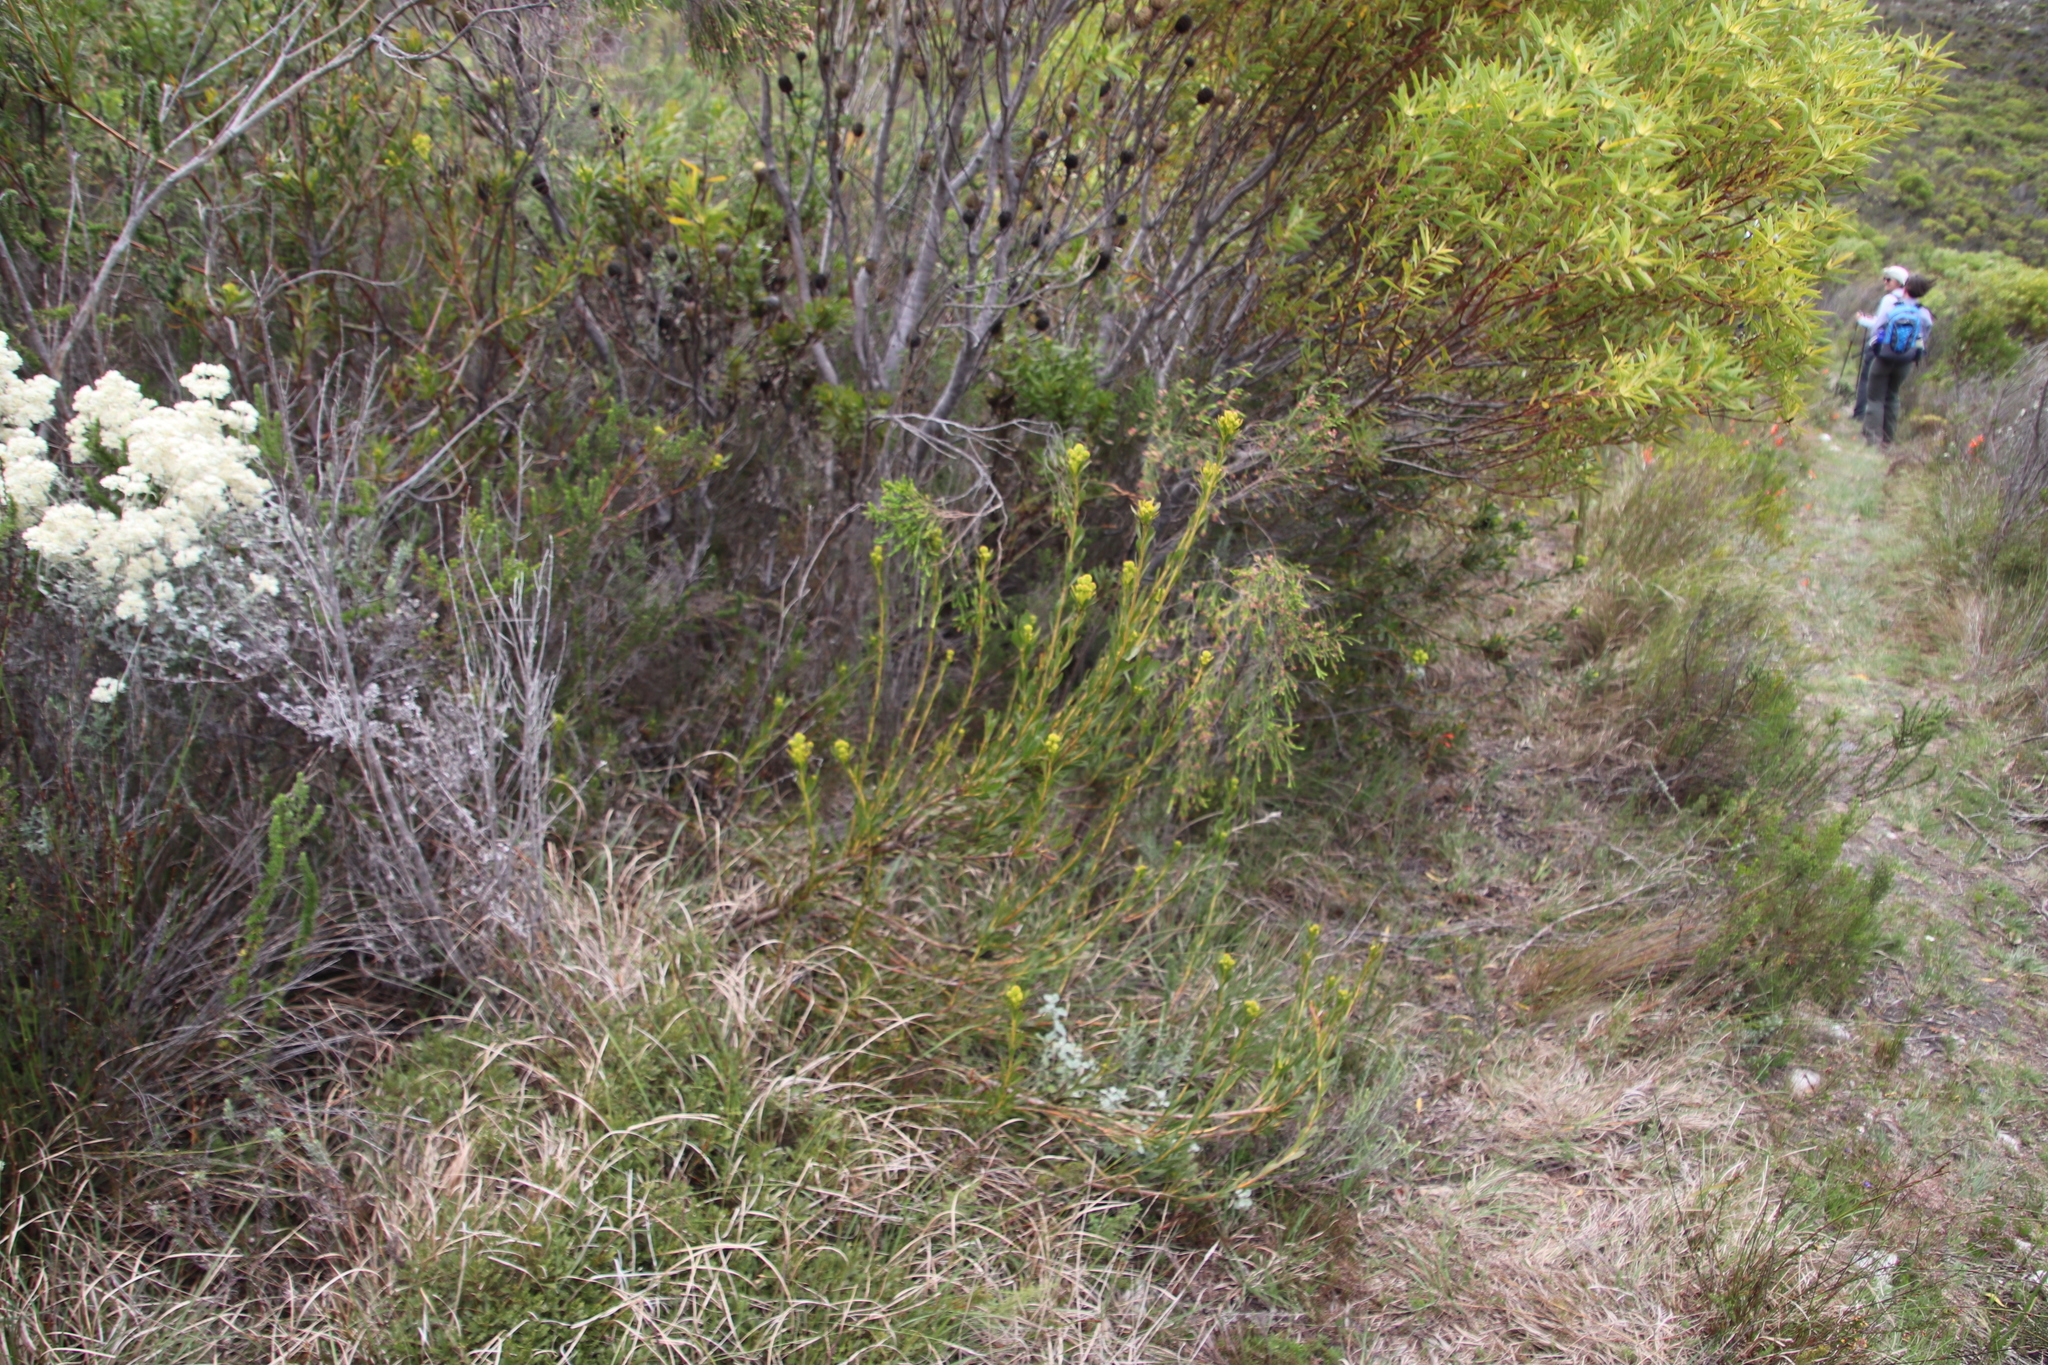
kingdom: Plantae
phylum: Tracheophyta
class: Magnoliopsida
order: Proteales
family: Proteaceae
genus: Aulax
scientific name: Aulax umbellata
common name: Broad-leaf featherbush
